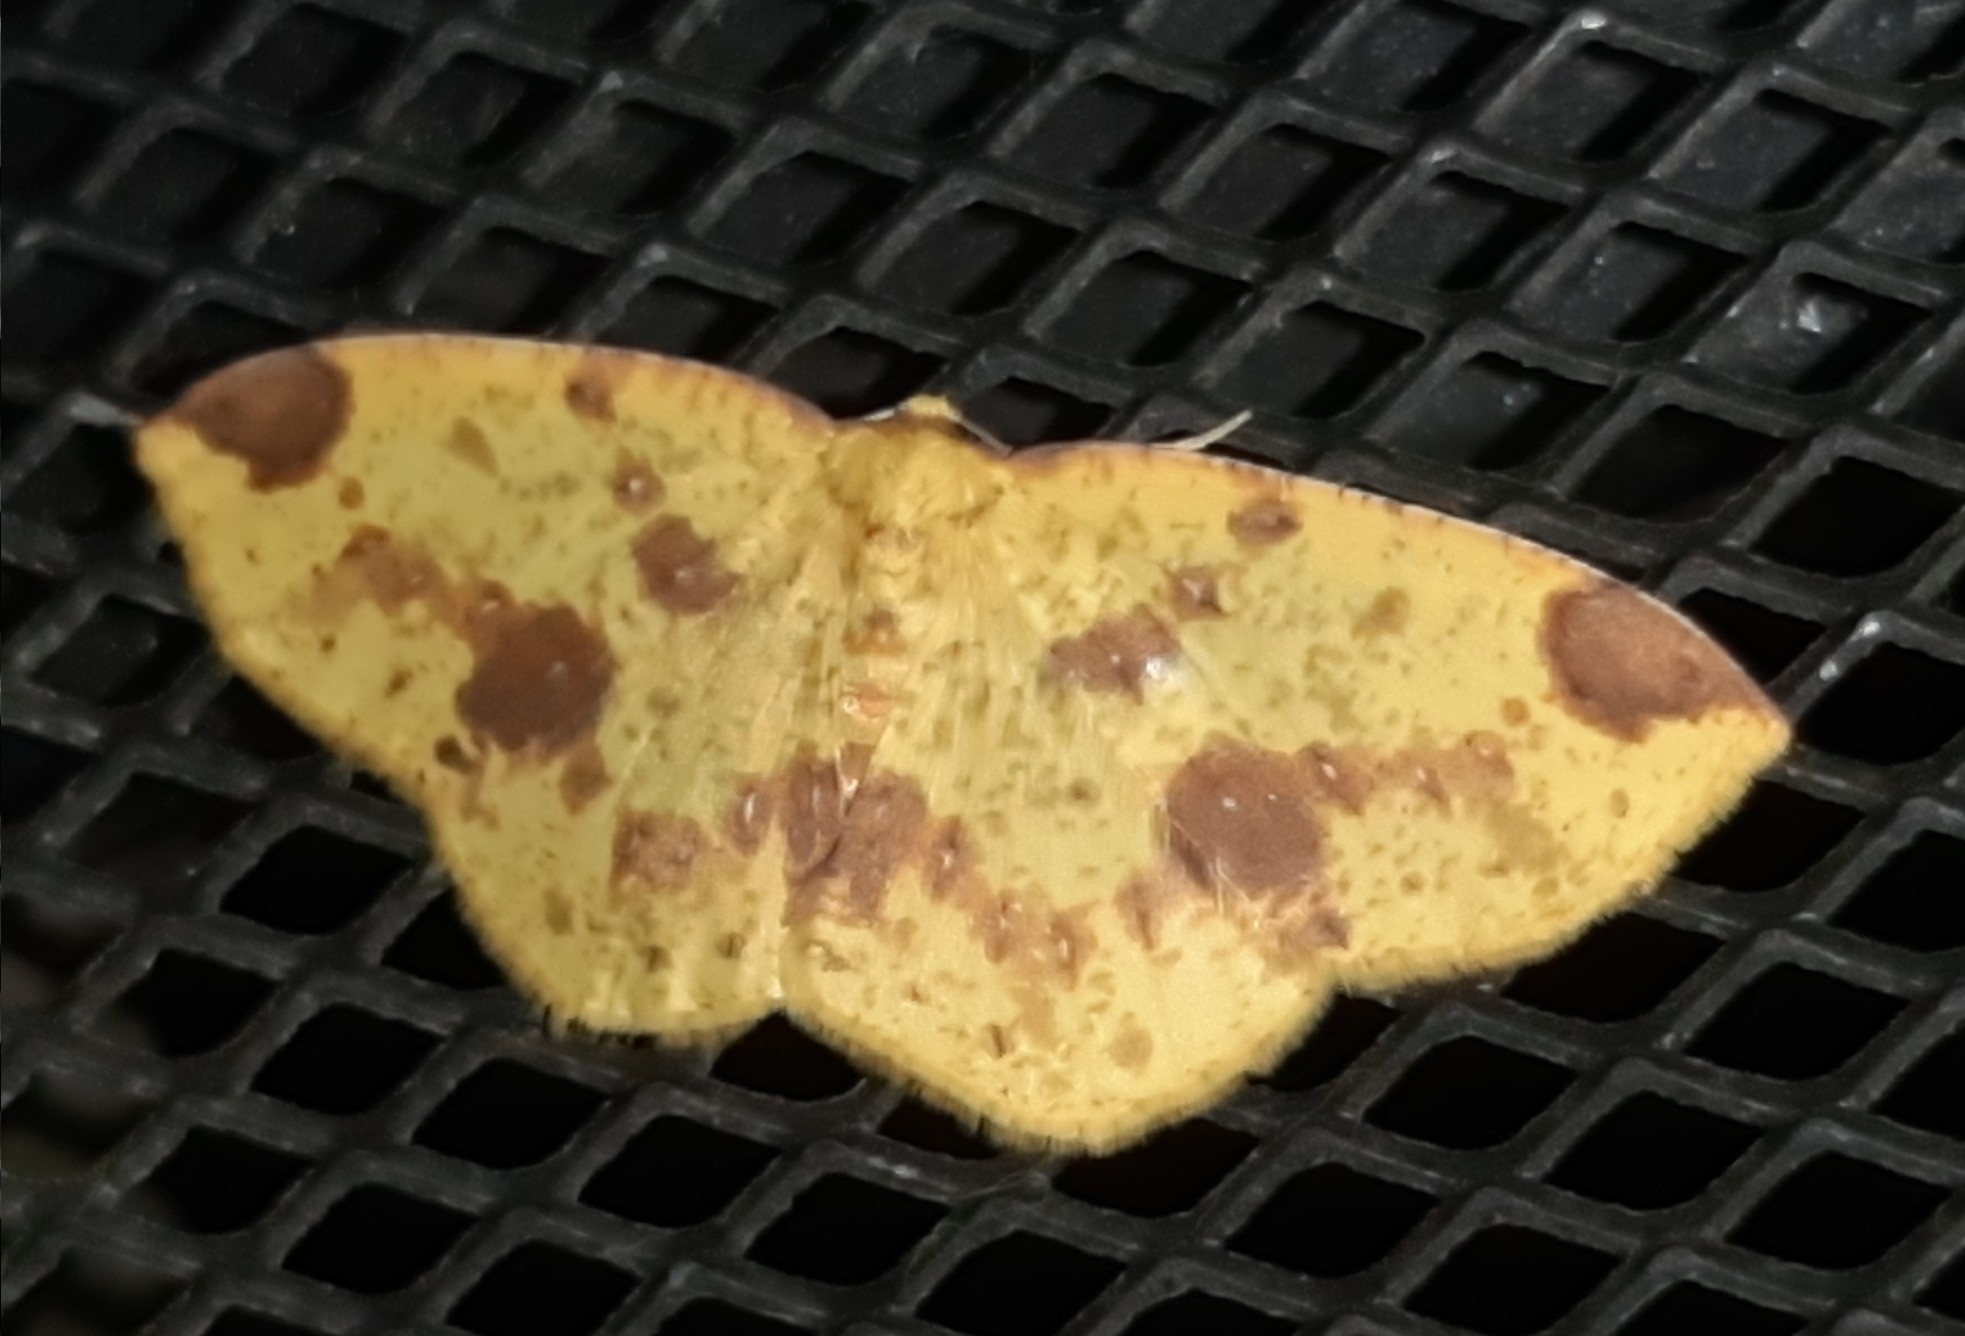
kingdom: Animalia
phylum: Arthropoda
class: Insecta
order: Lepidoptera
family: Geometridae
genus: Periclina
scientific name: Periclina apricaria
